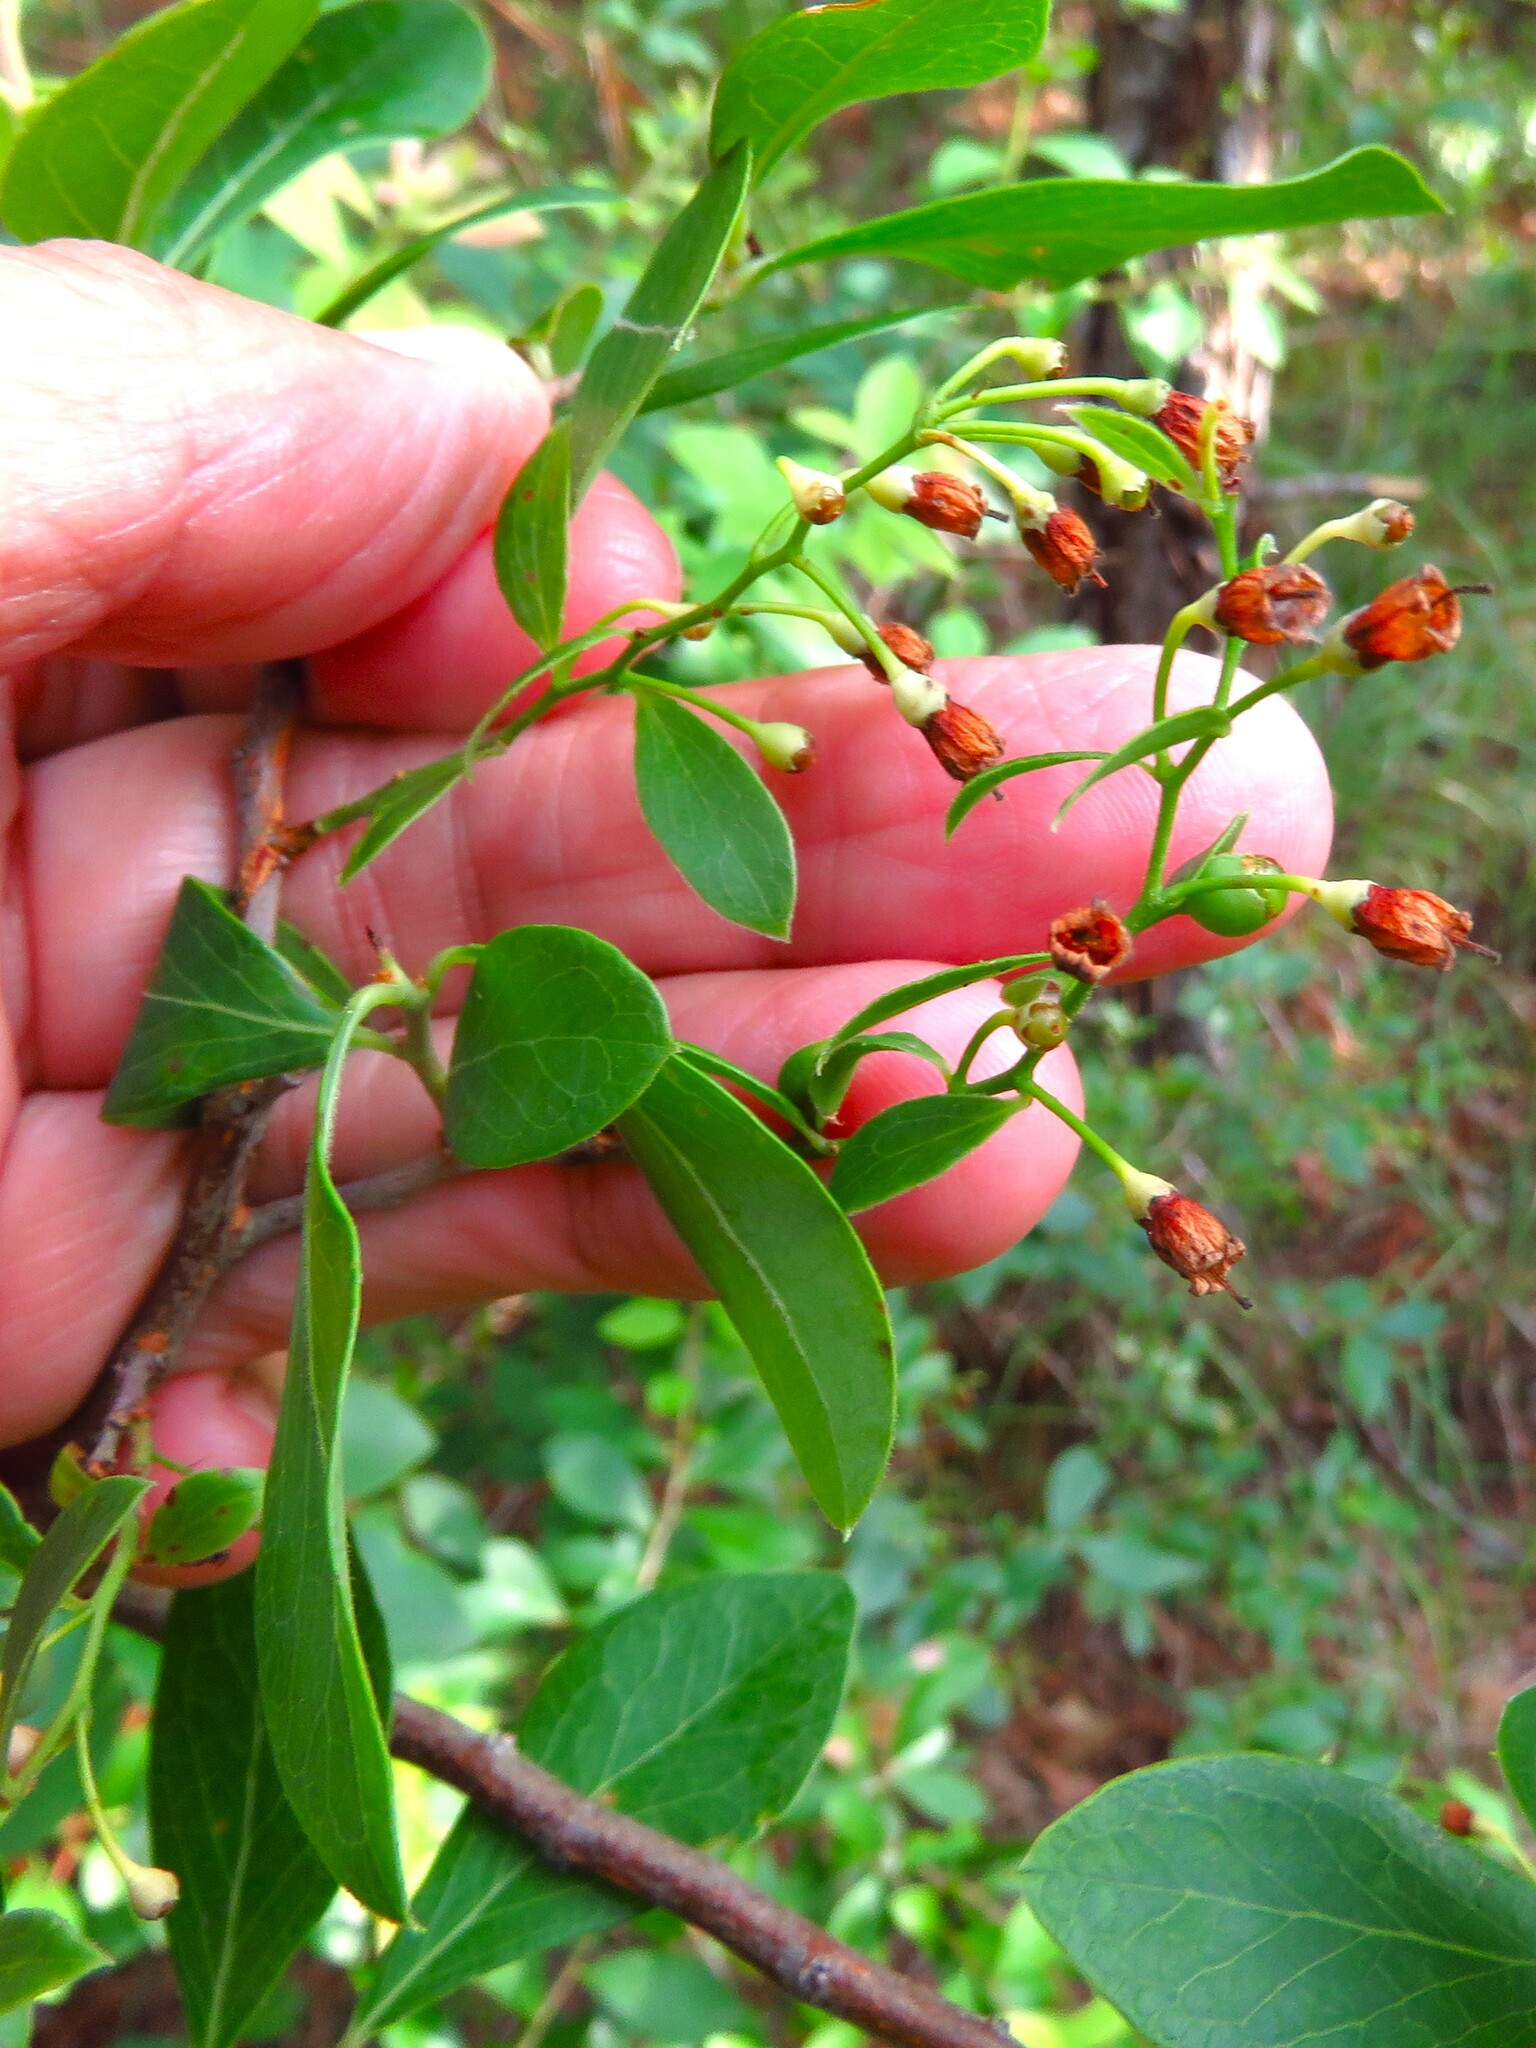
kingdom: Plantae
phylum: Tracheophyta
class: Magnoliopsida
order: Ericales
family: Ericaceae
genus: Vaccinium
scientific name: Vaccinium arboreum
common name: Farkleberry
